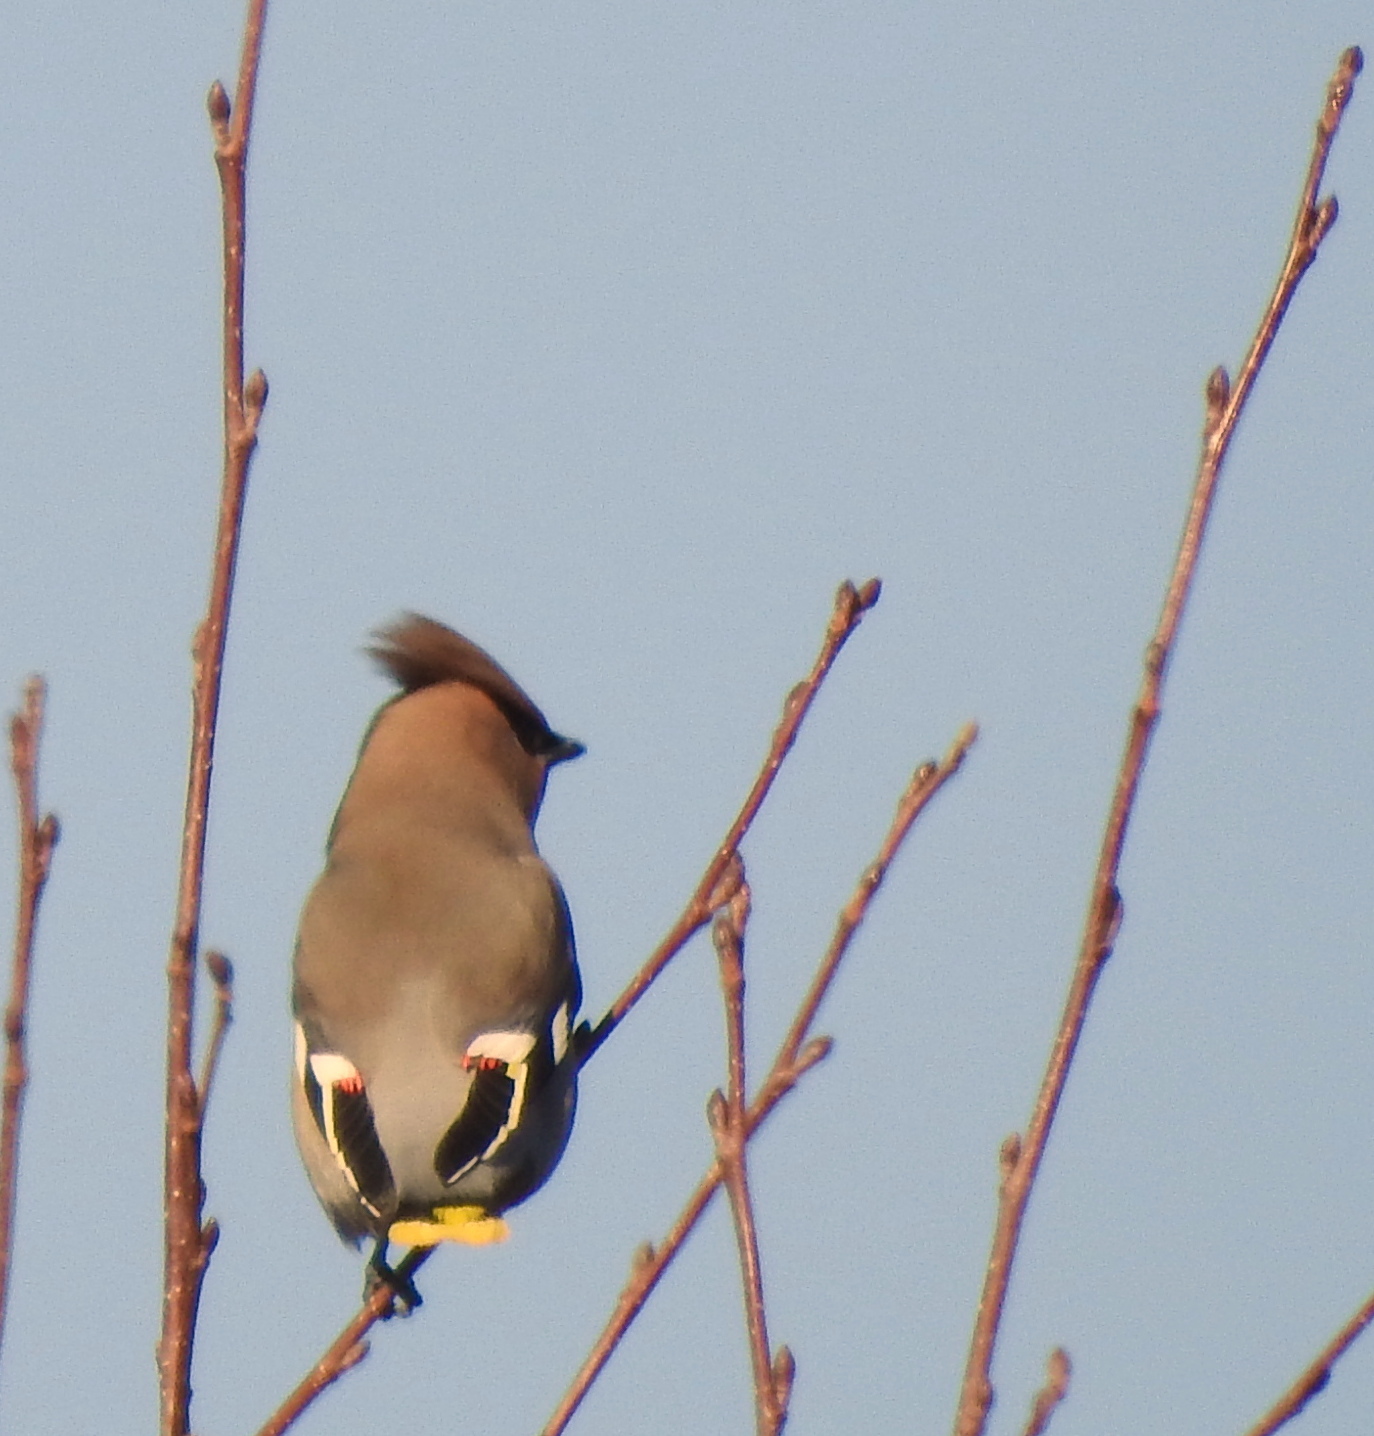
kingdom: Animalia
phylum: Chordata
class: Aves
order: Passeriformes
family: Bombycillidae
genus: Bombycilla
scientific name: Bombycilla garrulus
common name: Bohemian waxwing
